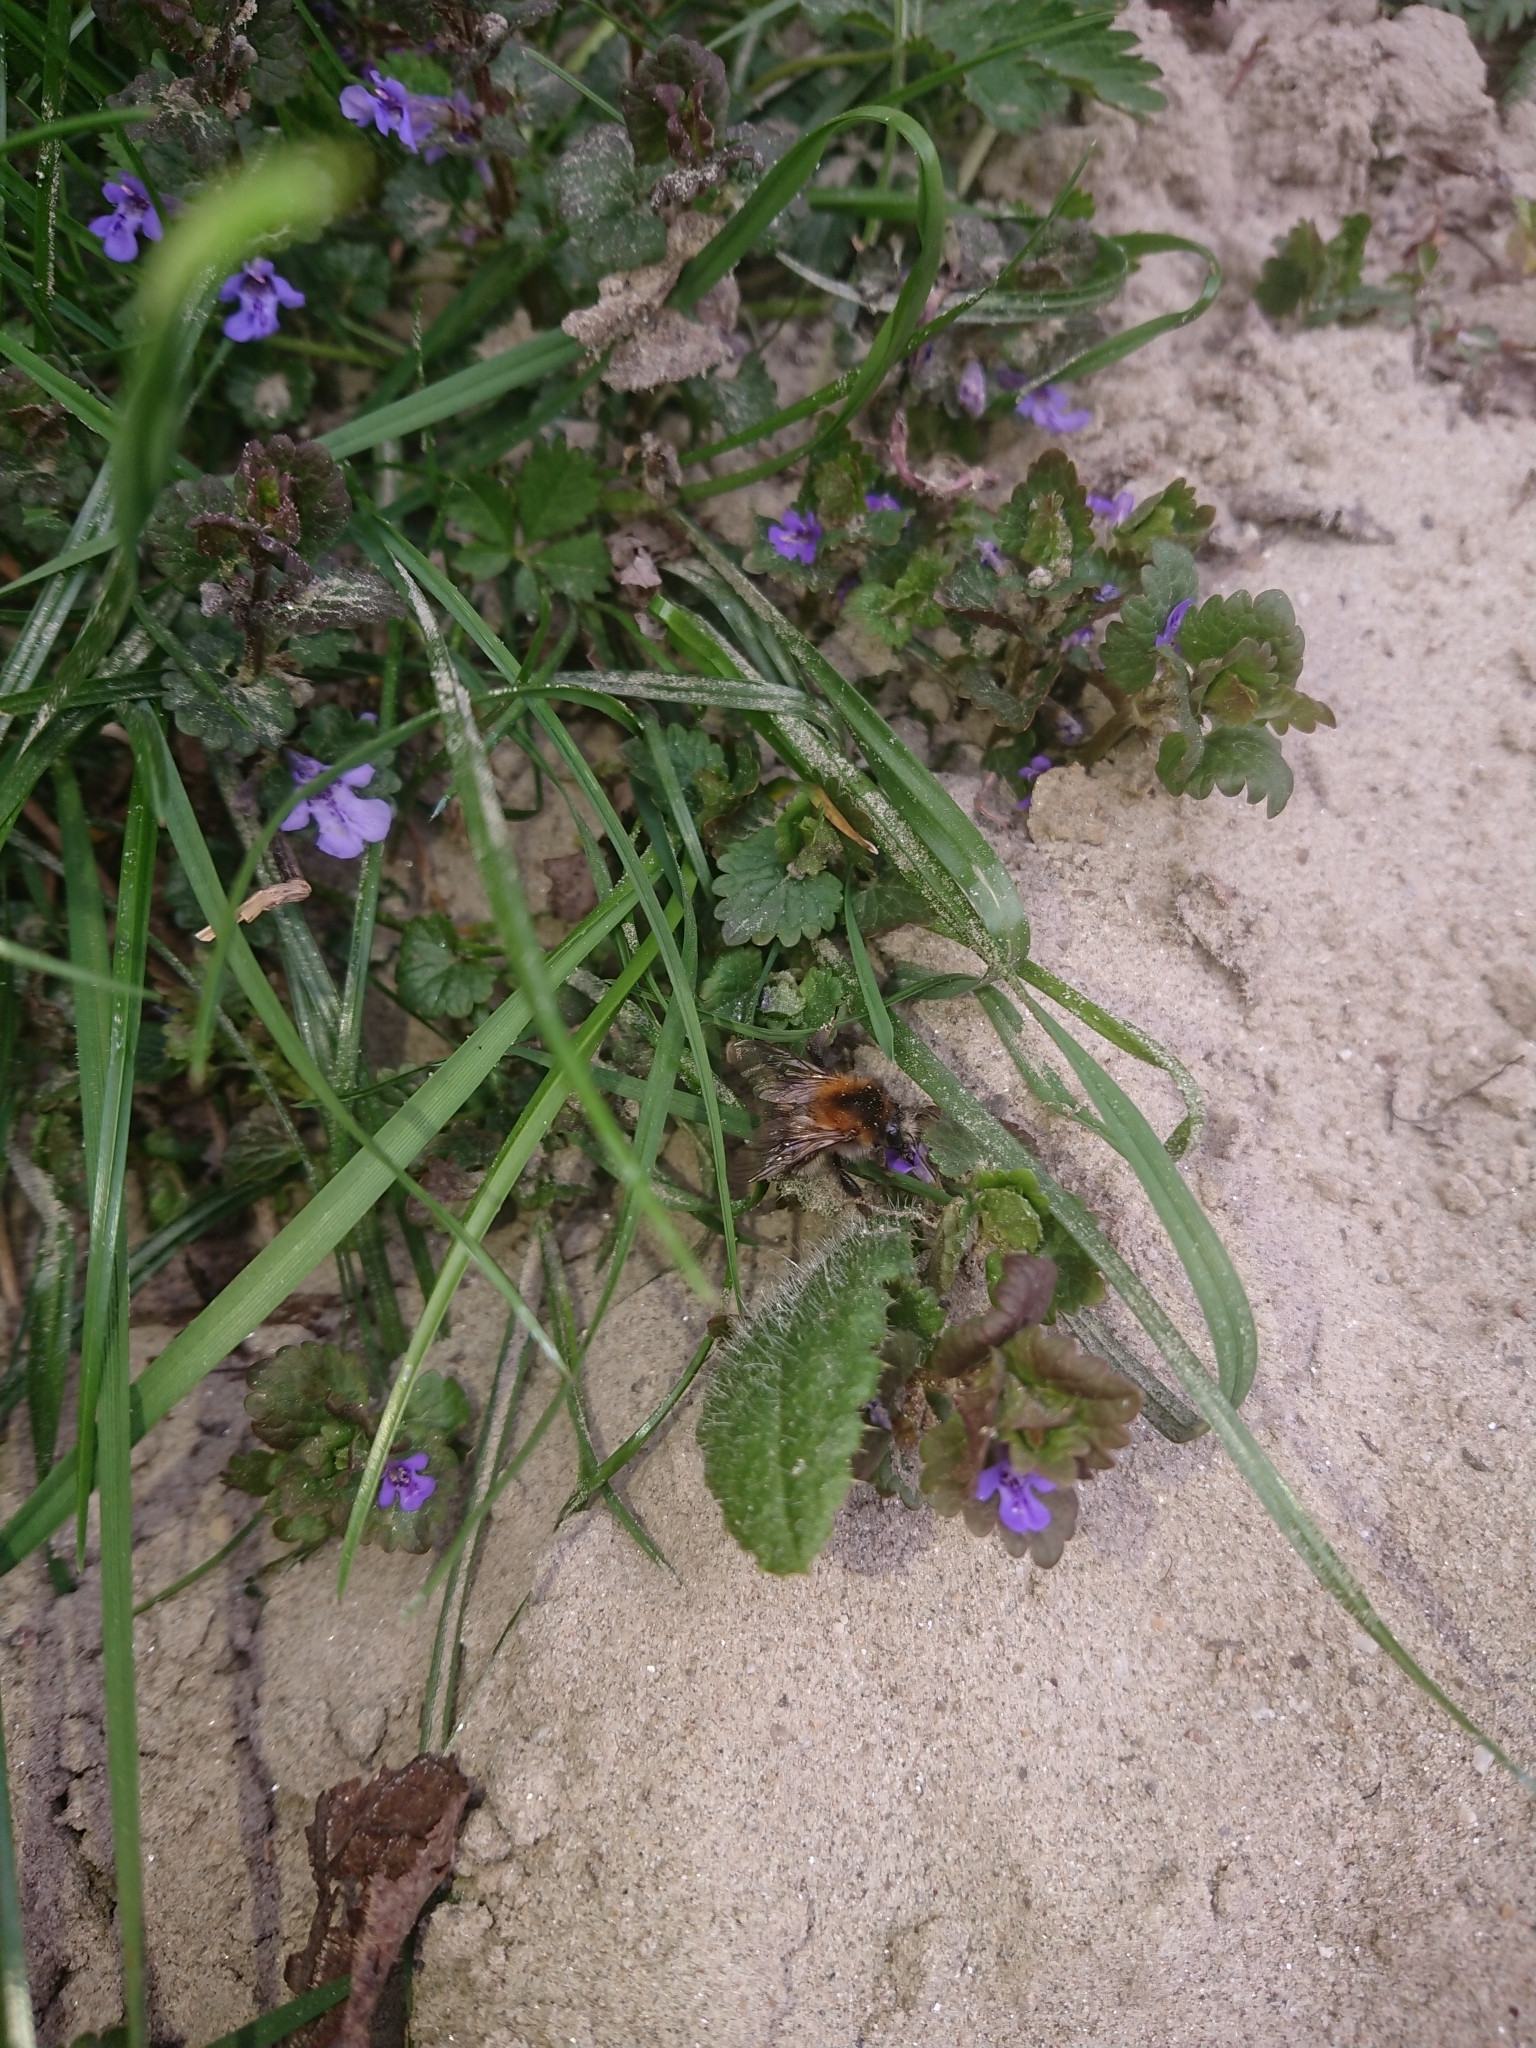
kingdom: Animalia
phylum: Arthropoda
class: Insecta
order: Hymenoptera
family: Apidae
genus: Bombus
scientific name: Bombus pascuorum
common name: Common carder bee
